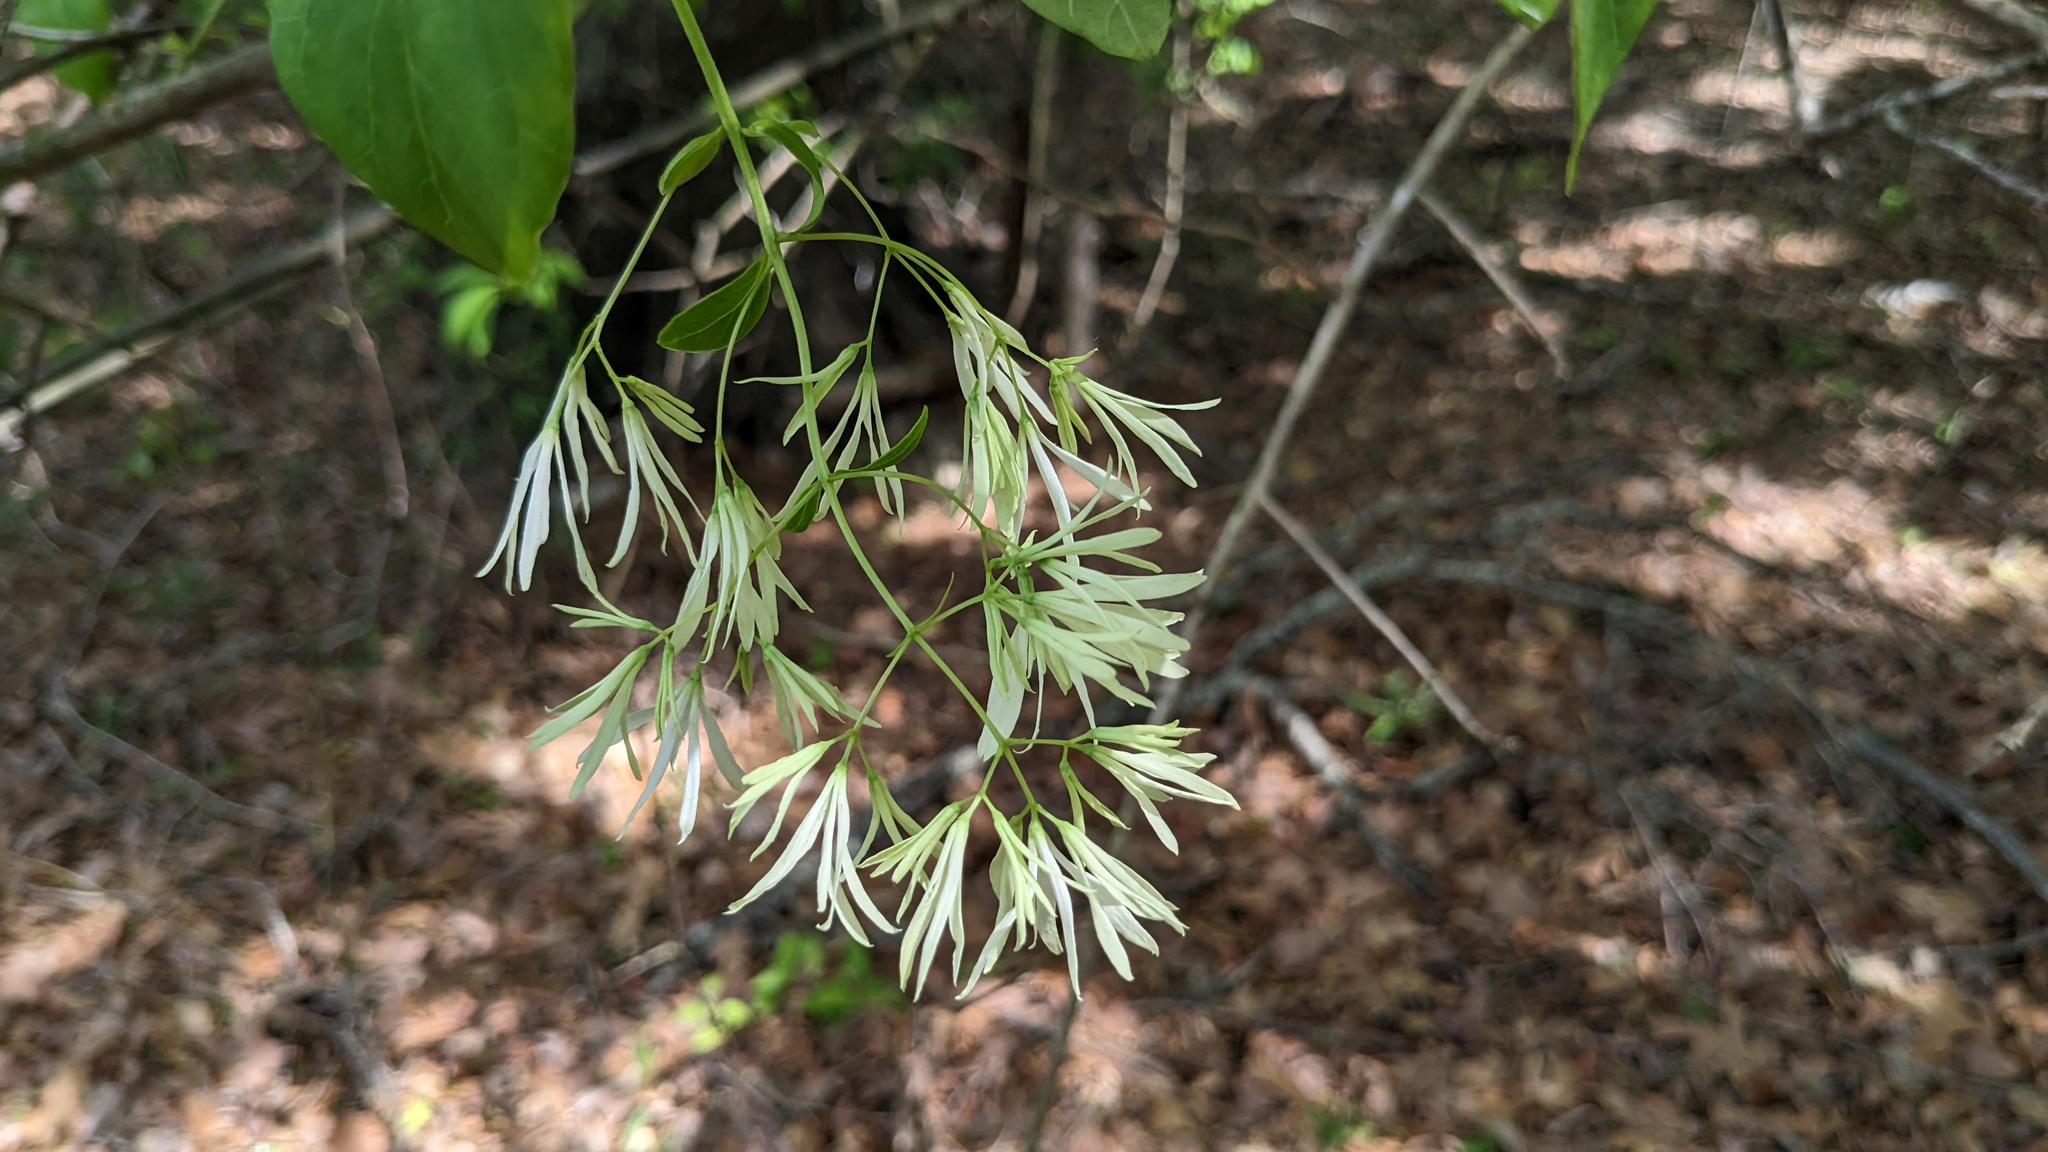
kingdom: Plantae
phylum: Tracheophyta
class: Magnoliopsida
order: Lamiales
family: Oleaceae
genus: Chionanthus
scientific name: Chionanthus virginicus
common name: American fringetree
